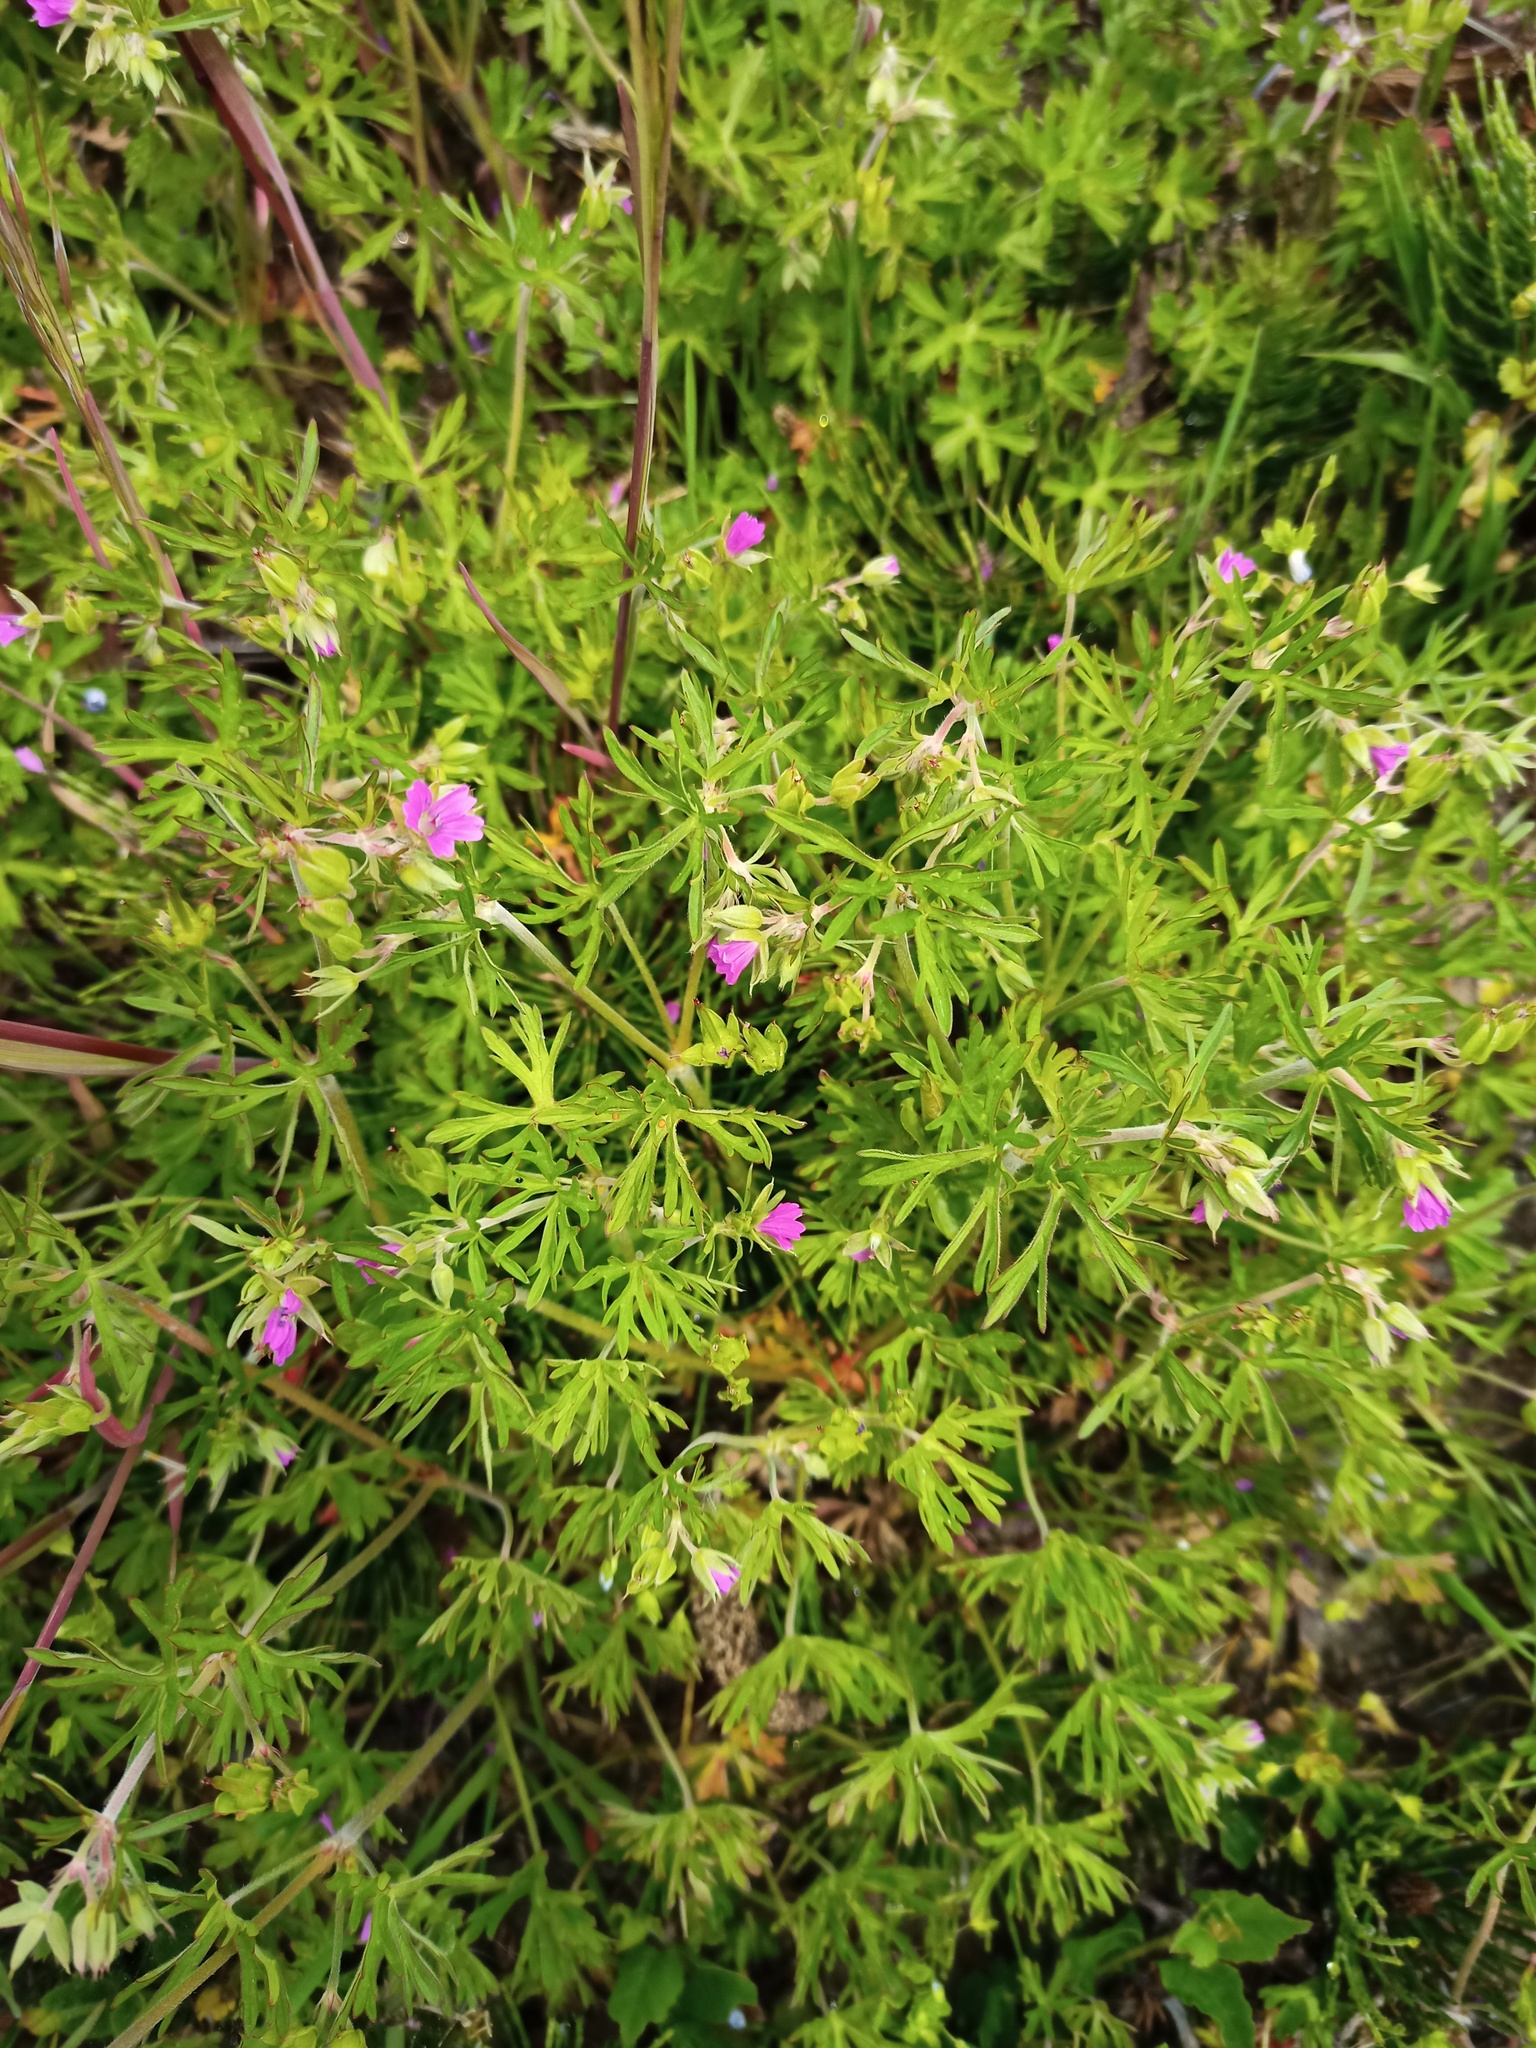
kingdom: Plantae
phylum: Tracheophyta
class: Magnoliopsida
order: Geraniales
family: Geraniaceae
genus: Geranium
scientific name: Geranium dissectum
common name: Cut-leaved crane's-bill
